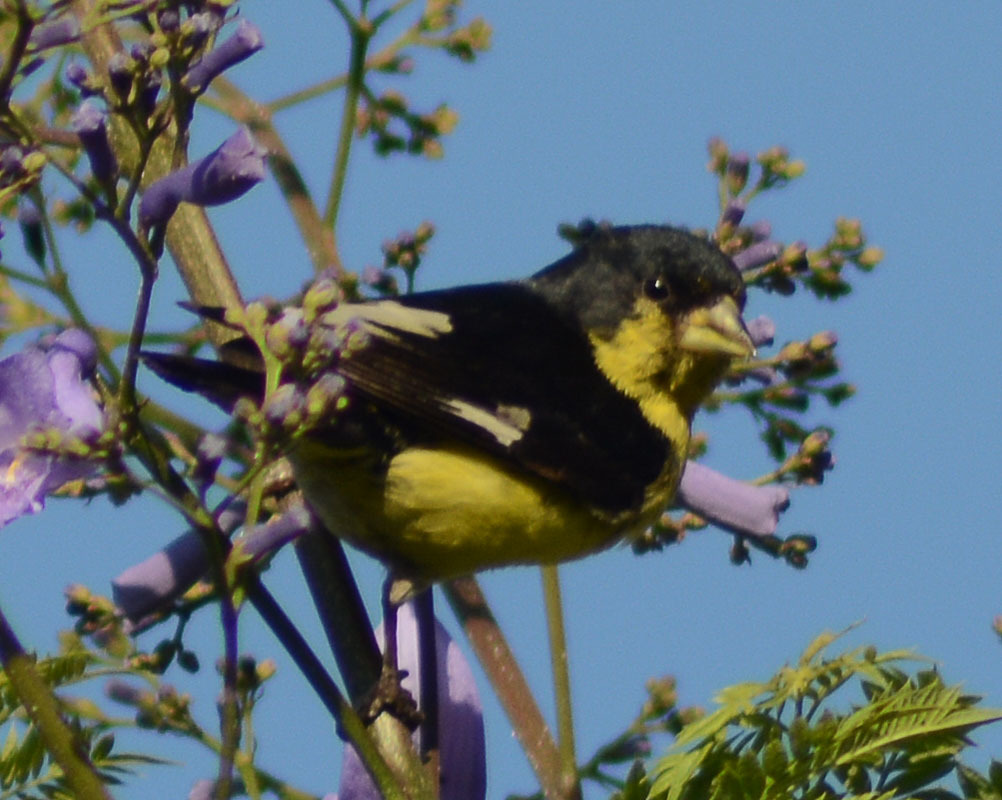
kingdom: Animalia
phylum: Chordata
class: Aves
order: Passeriformes
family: Fringillidae
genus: Spinus
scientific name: Spinus psaltria
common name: Lesser goldfinch
